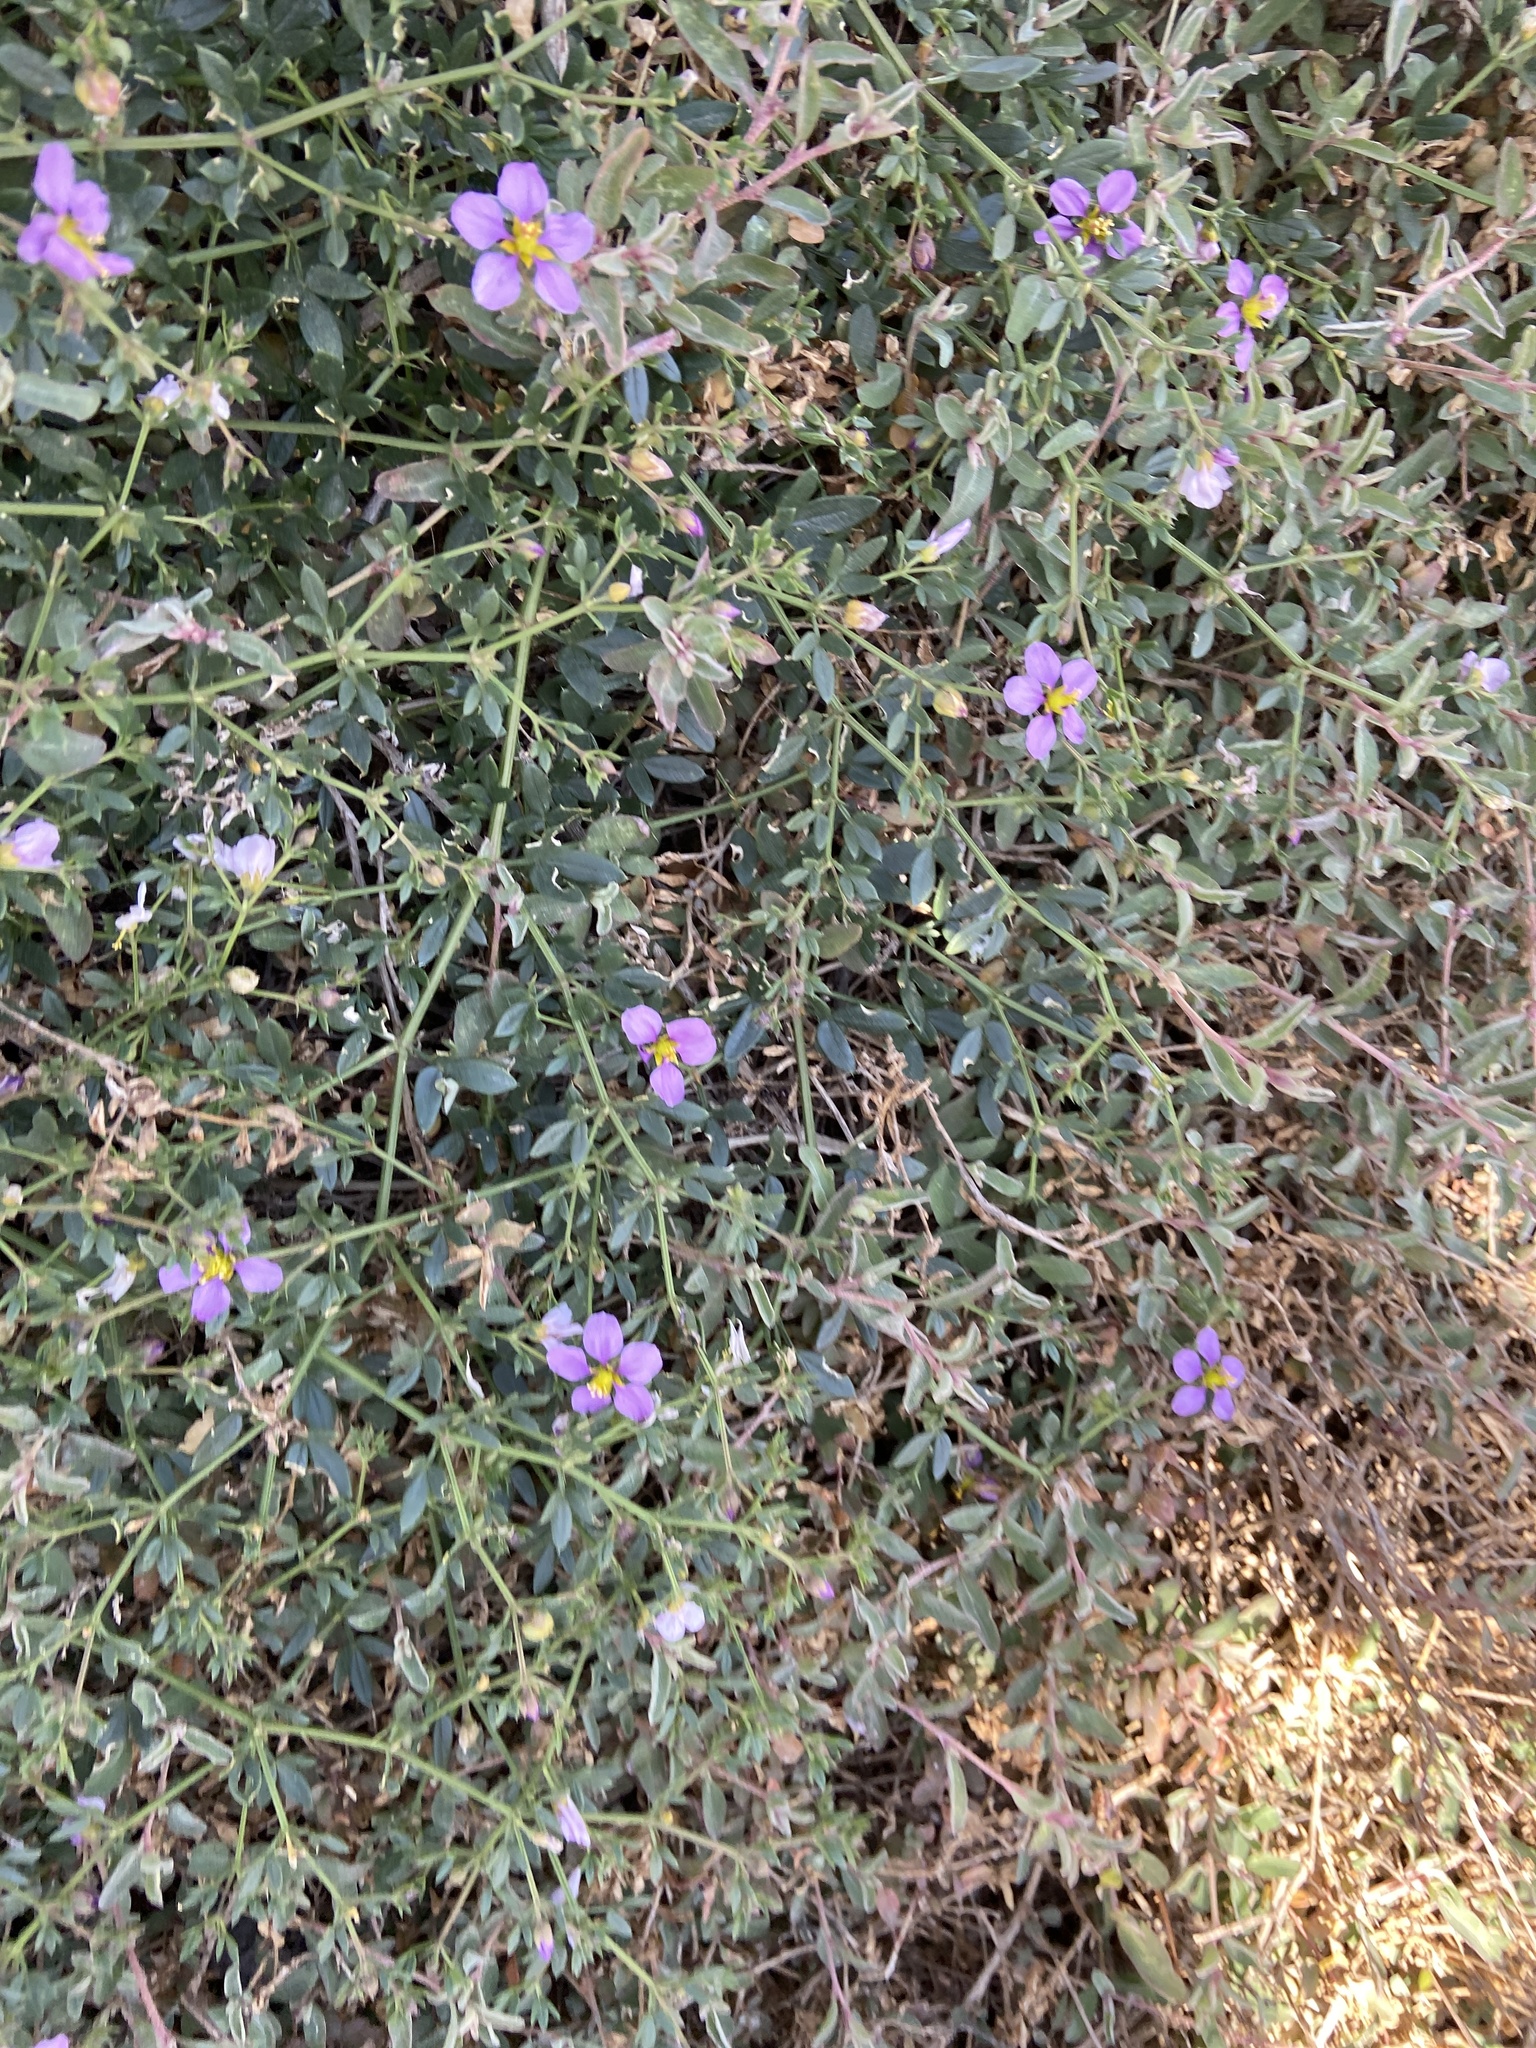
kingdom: Plantae
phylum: Tracheophyta
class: Magnoliopsida
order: Zygophyllales
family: Zygophyllaceae
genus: Fagonia
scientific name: Fagonia cretica
